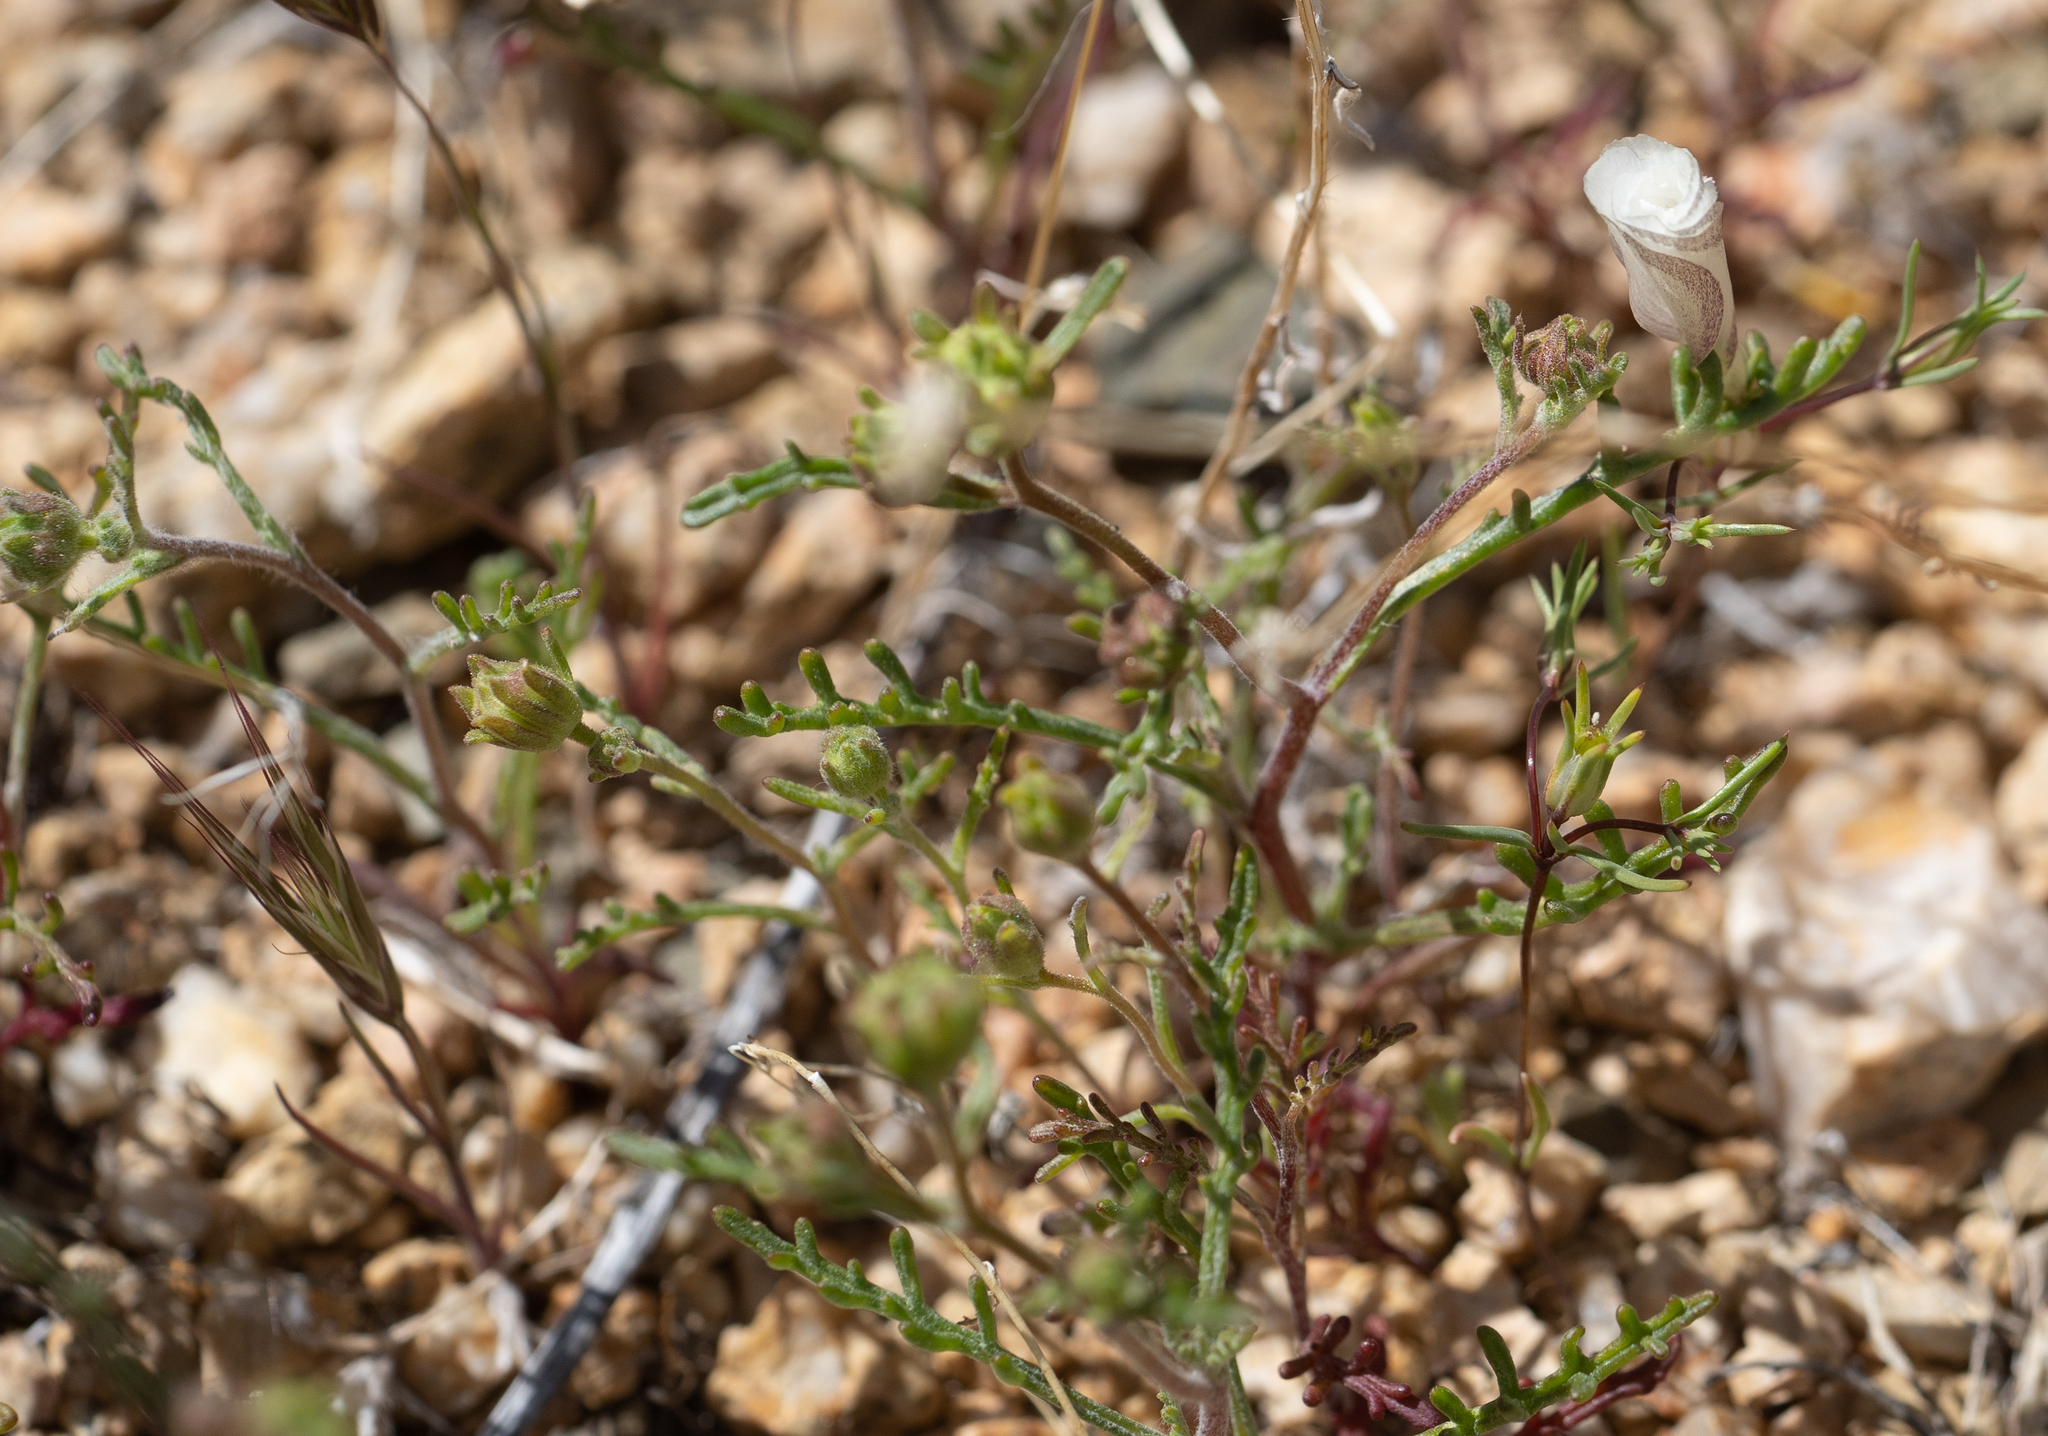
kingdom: Plantae
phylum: Tracheophyta
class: Magnoliopsida
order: Ericales
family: Polemoniaceae
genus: Linanthus
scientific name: Linanthus dichotomus
